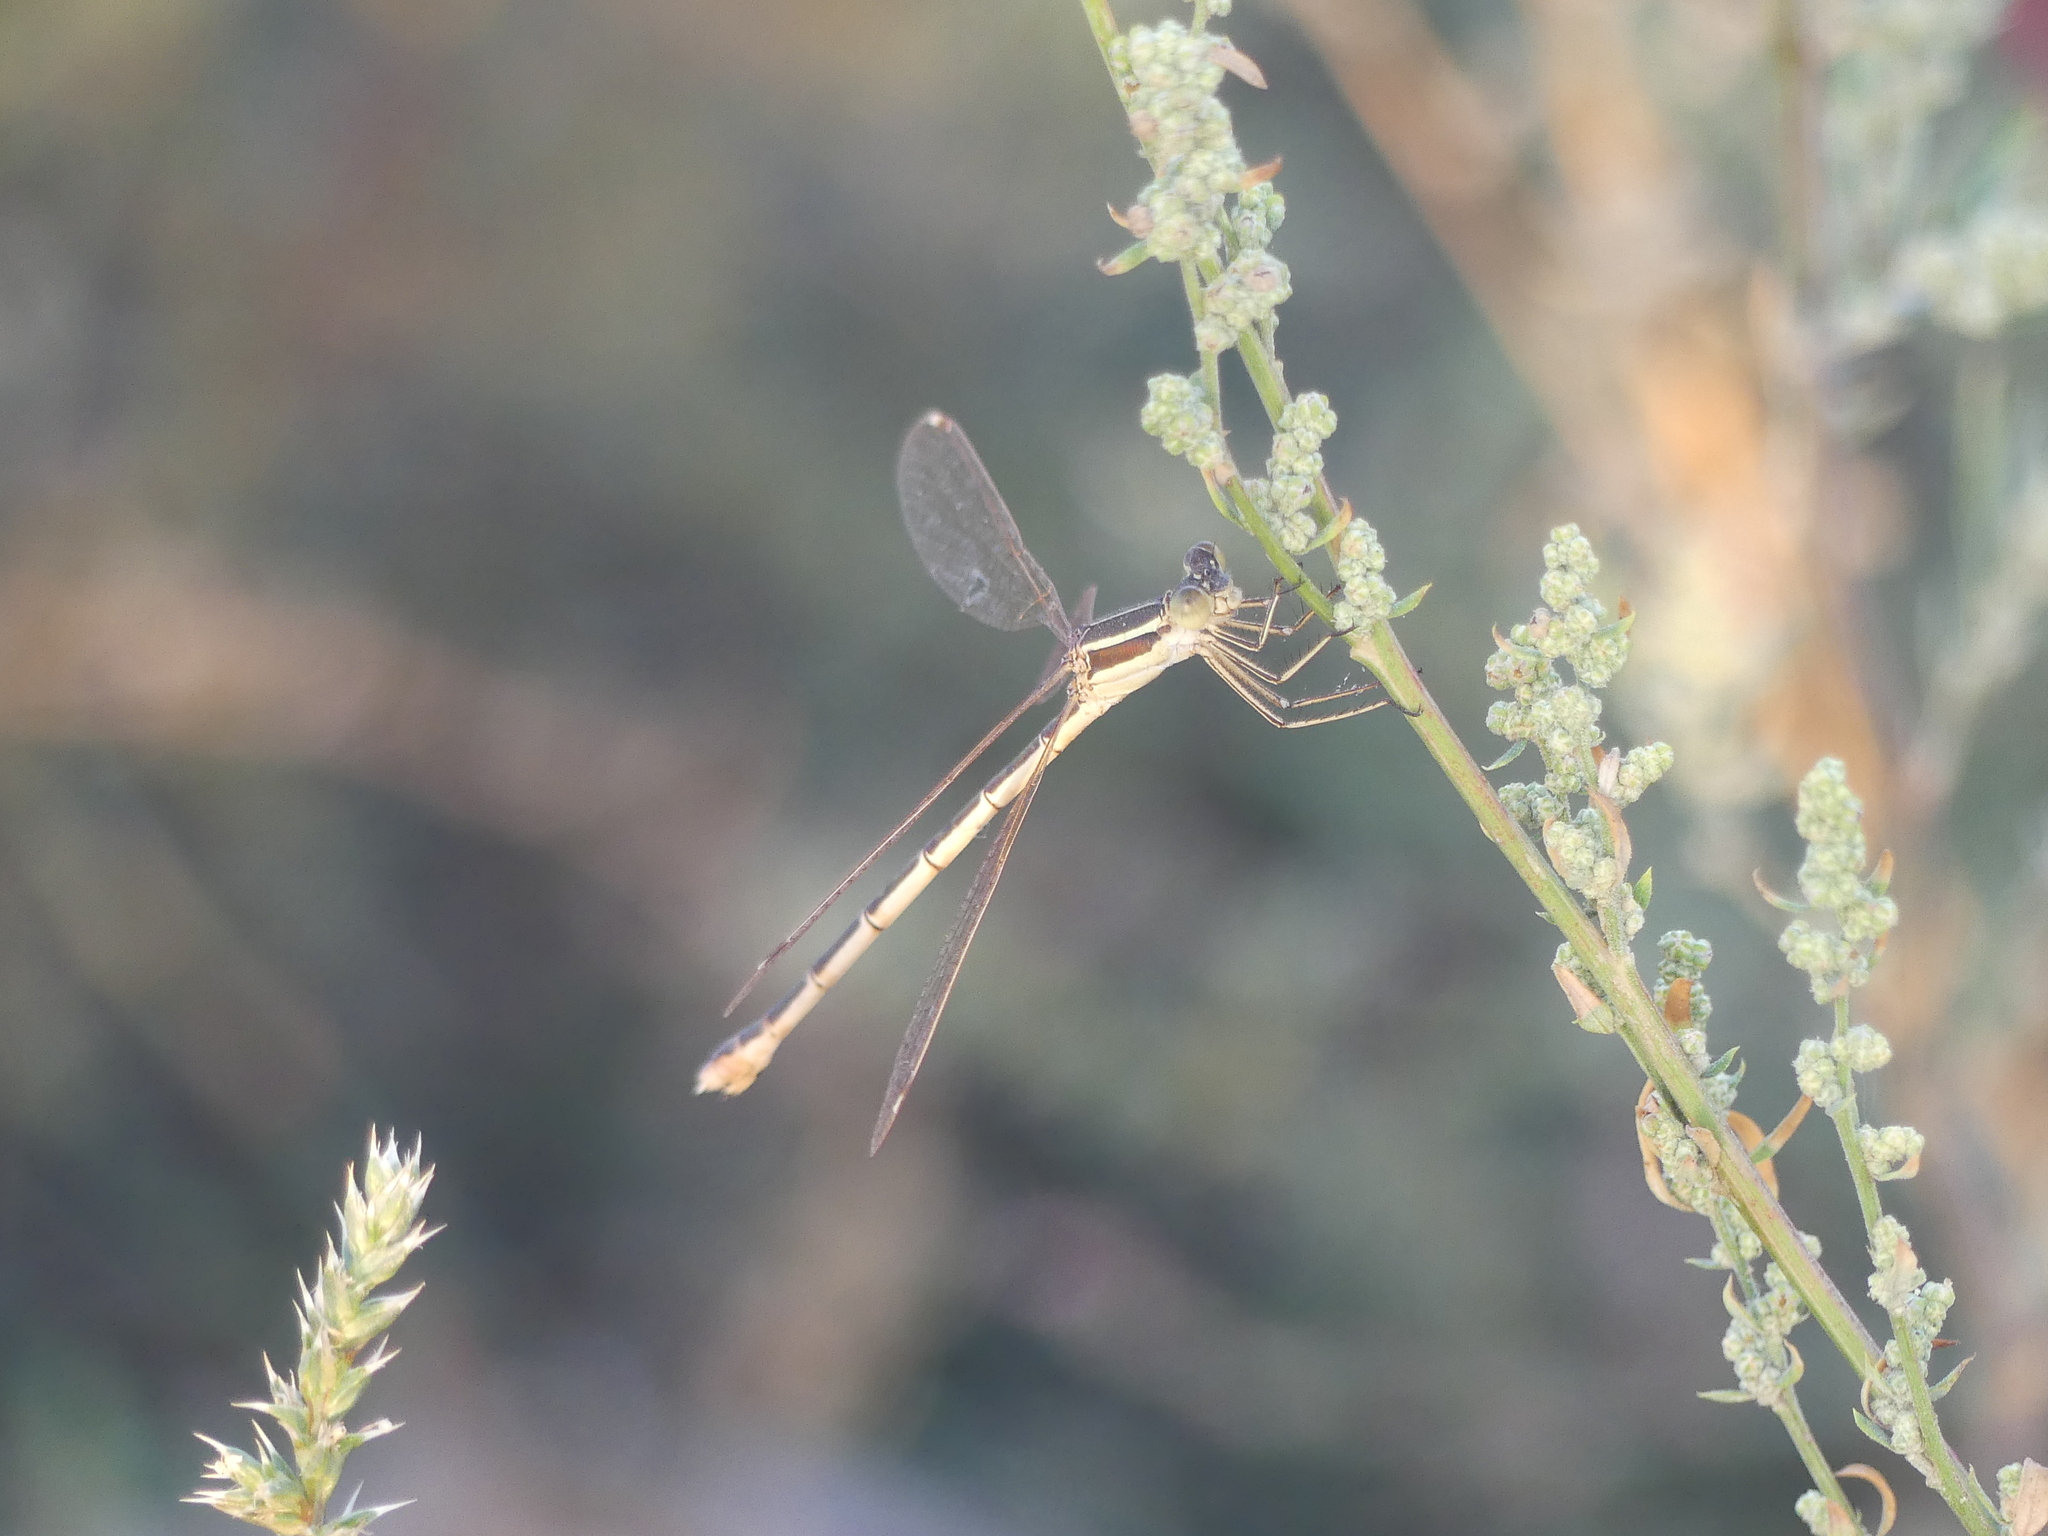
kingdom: Animalia
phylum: Arthropoda
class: Insecta
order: Odonata
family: Lestidae
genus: Lestes
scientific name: Lestes barbarus
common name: Migrant spreadwing
